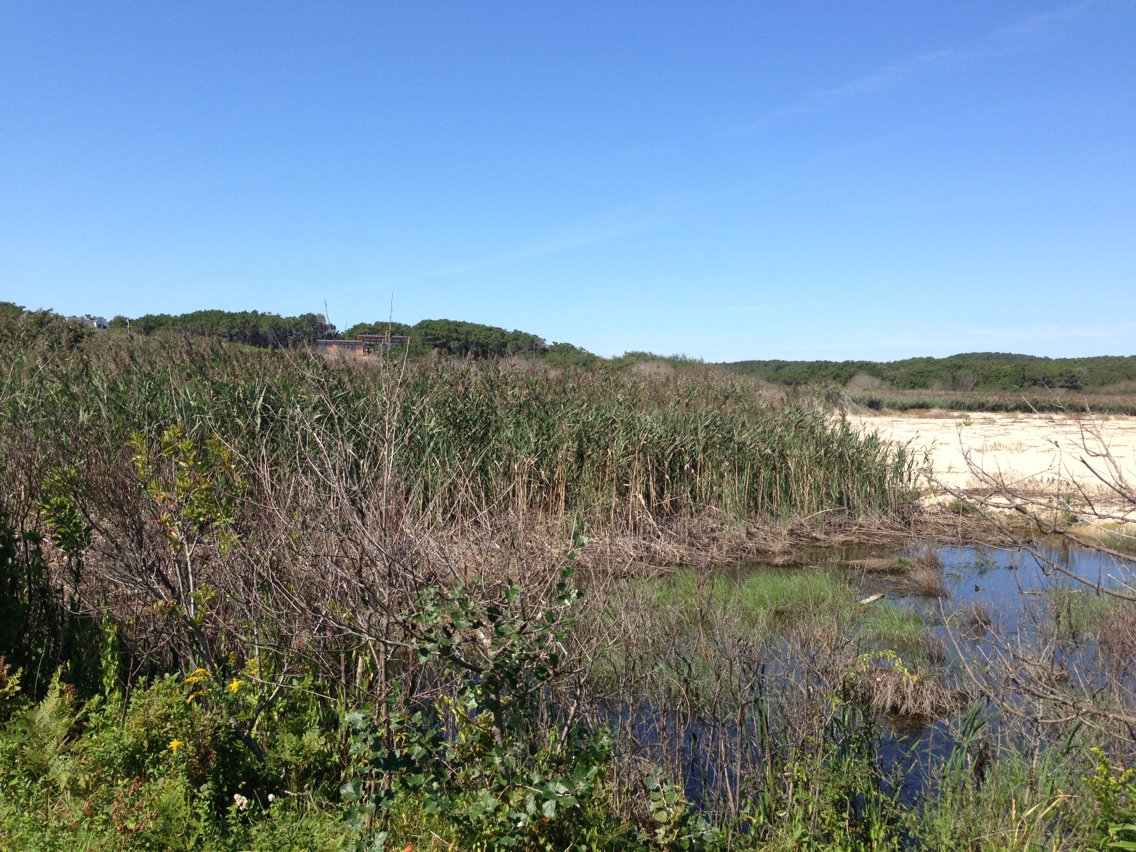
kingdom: Plantae
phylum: Tracheophyta
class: Liliopsida
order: Poales
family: Poaceae
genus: Phragmites
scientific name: Phragmites australis
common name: Common reed
